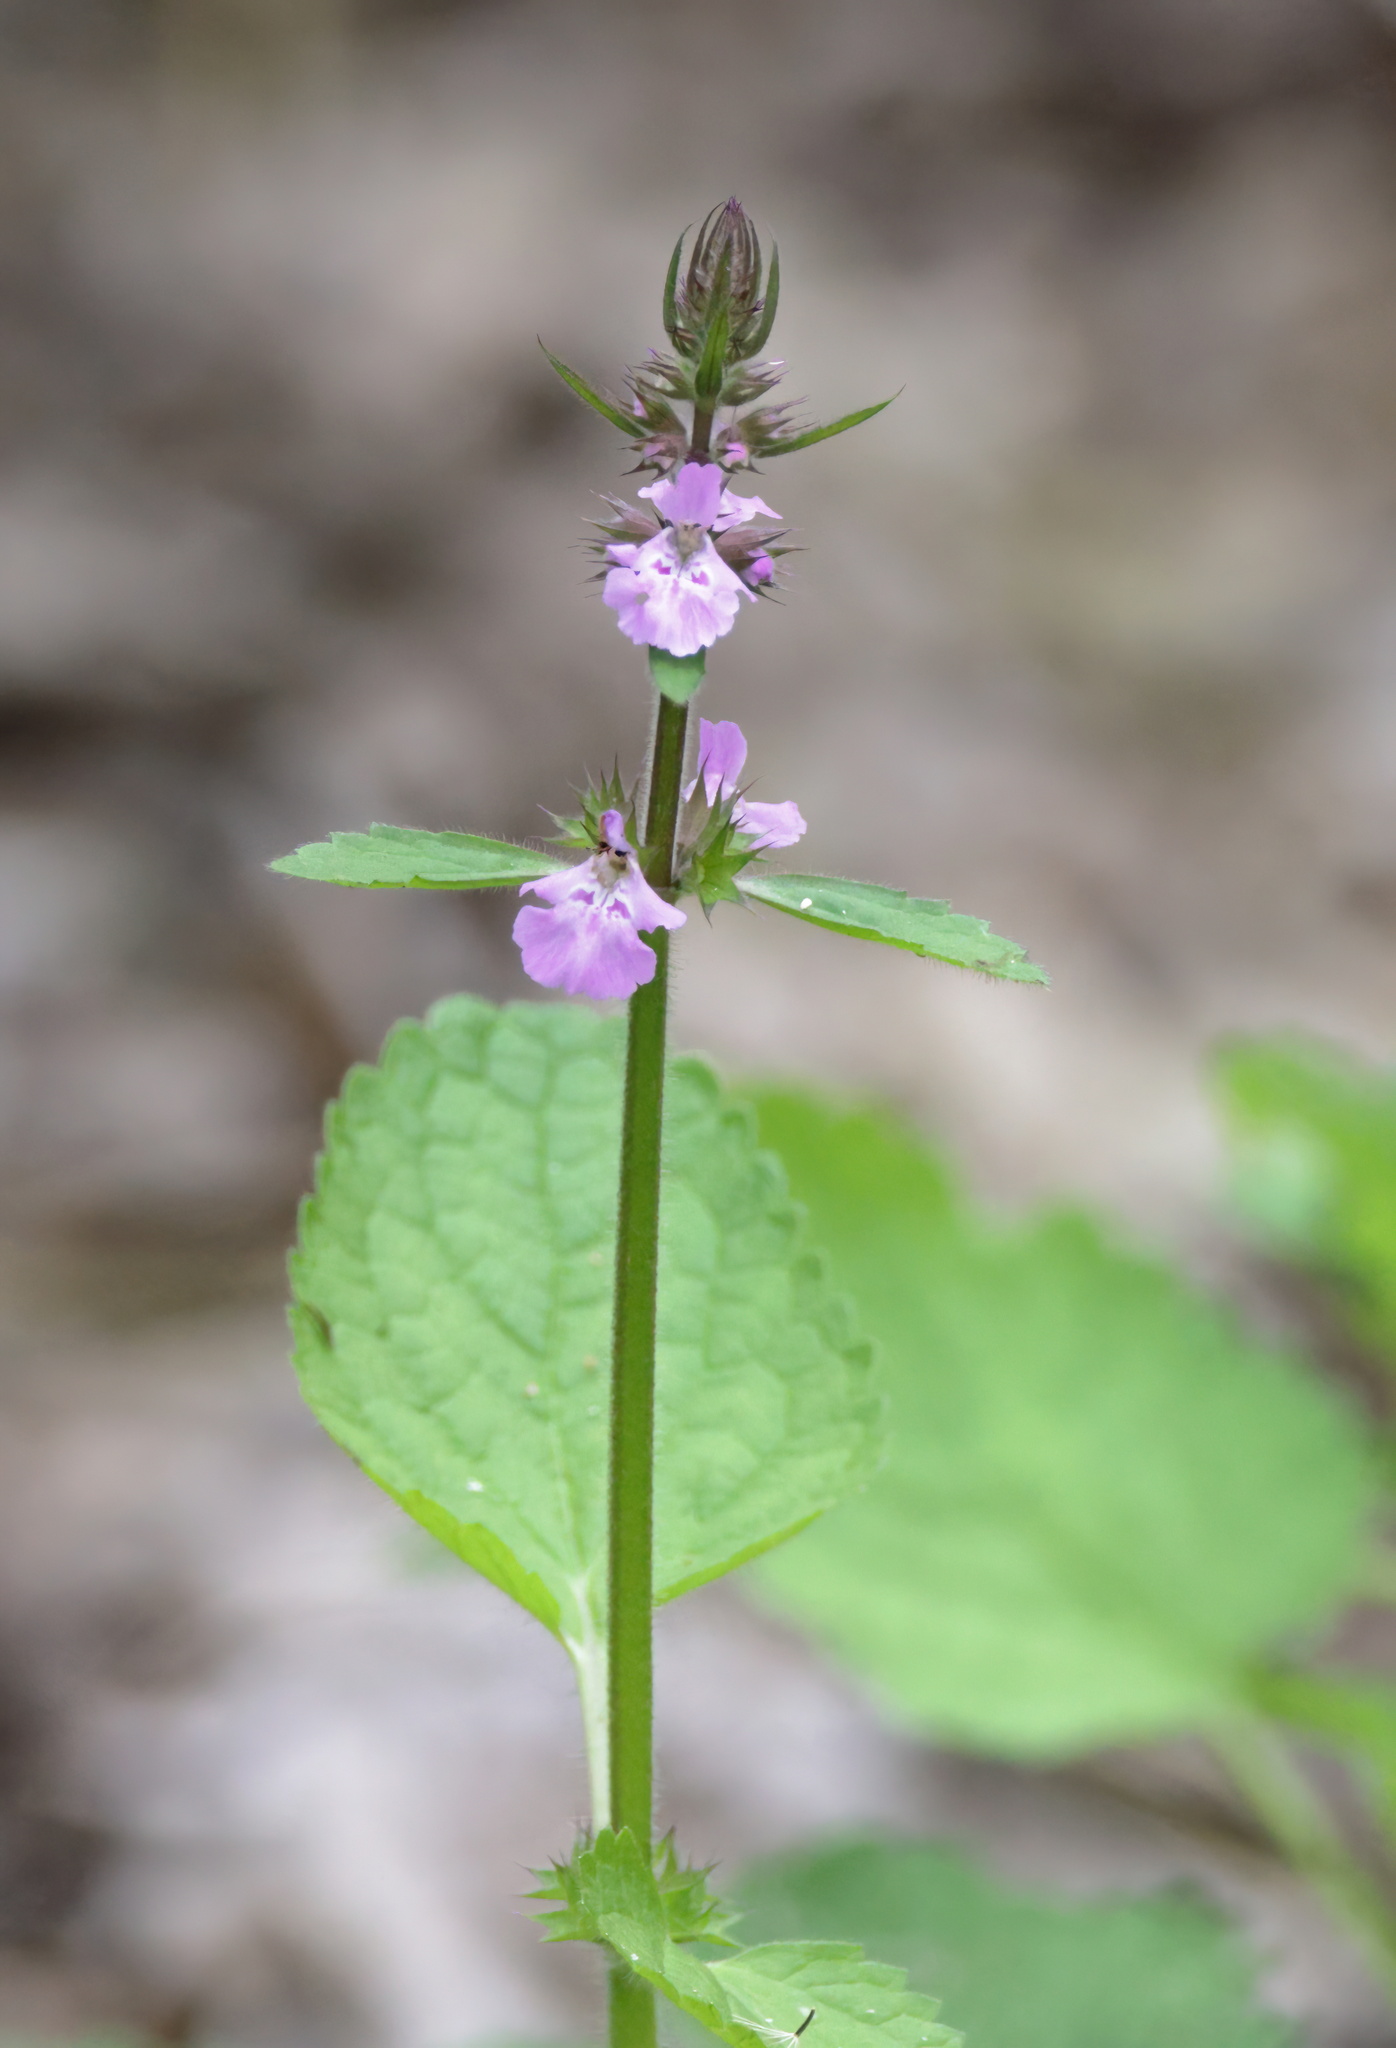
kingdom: Plantae
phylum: Tracheophyta
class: Magnoliopsida
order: Lamiales
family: Lamiaceae
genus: Stachys
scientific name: Stachys drummondii
